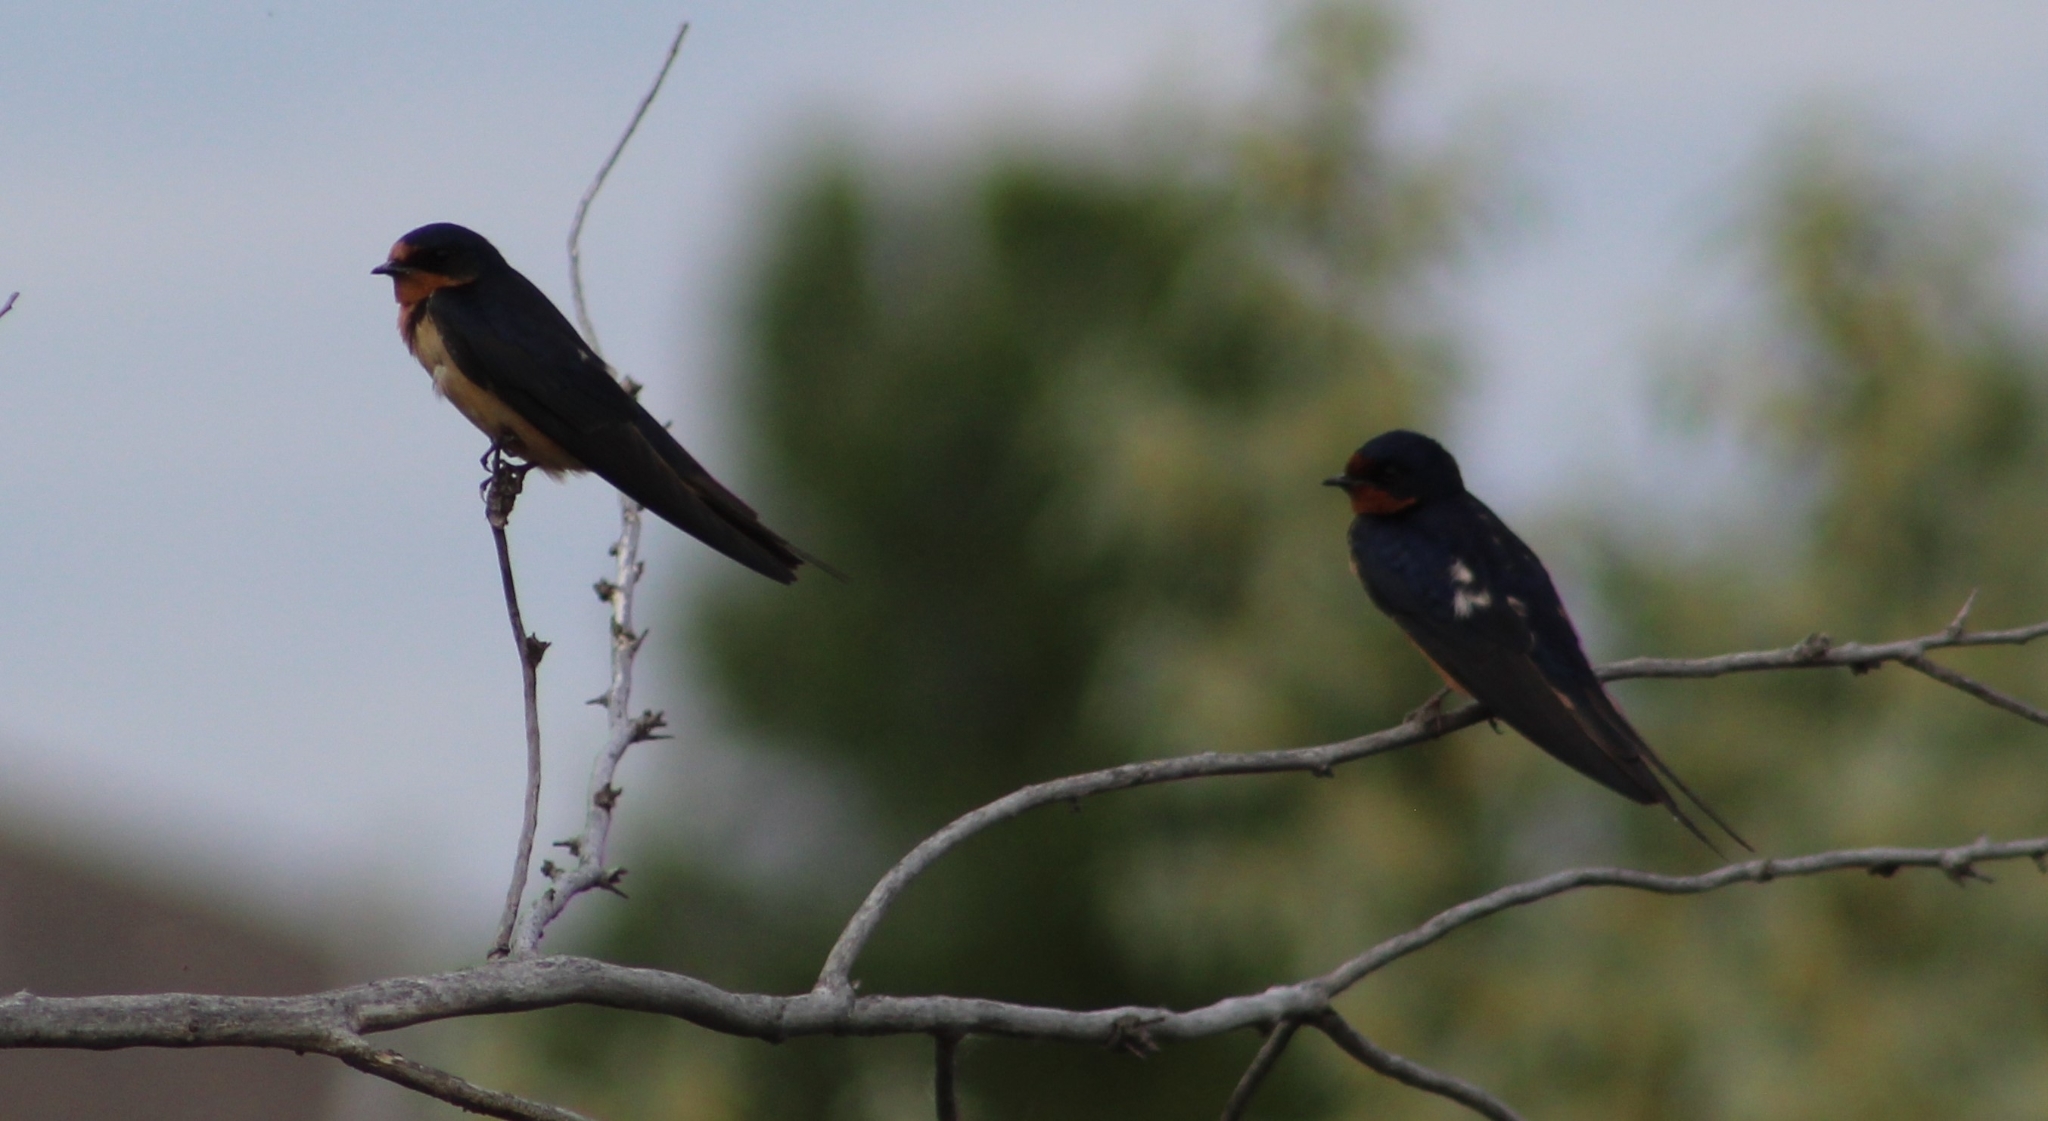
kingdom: Animalia
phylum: Chordata
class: Aves
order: Passeriformes
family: Hirundinidae
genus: Hirundo
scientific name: Hirundo rustica
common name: Barn swallow
